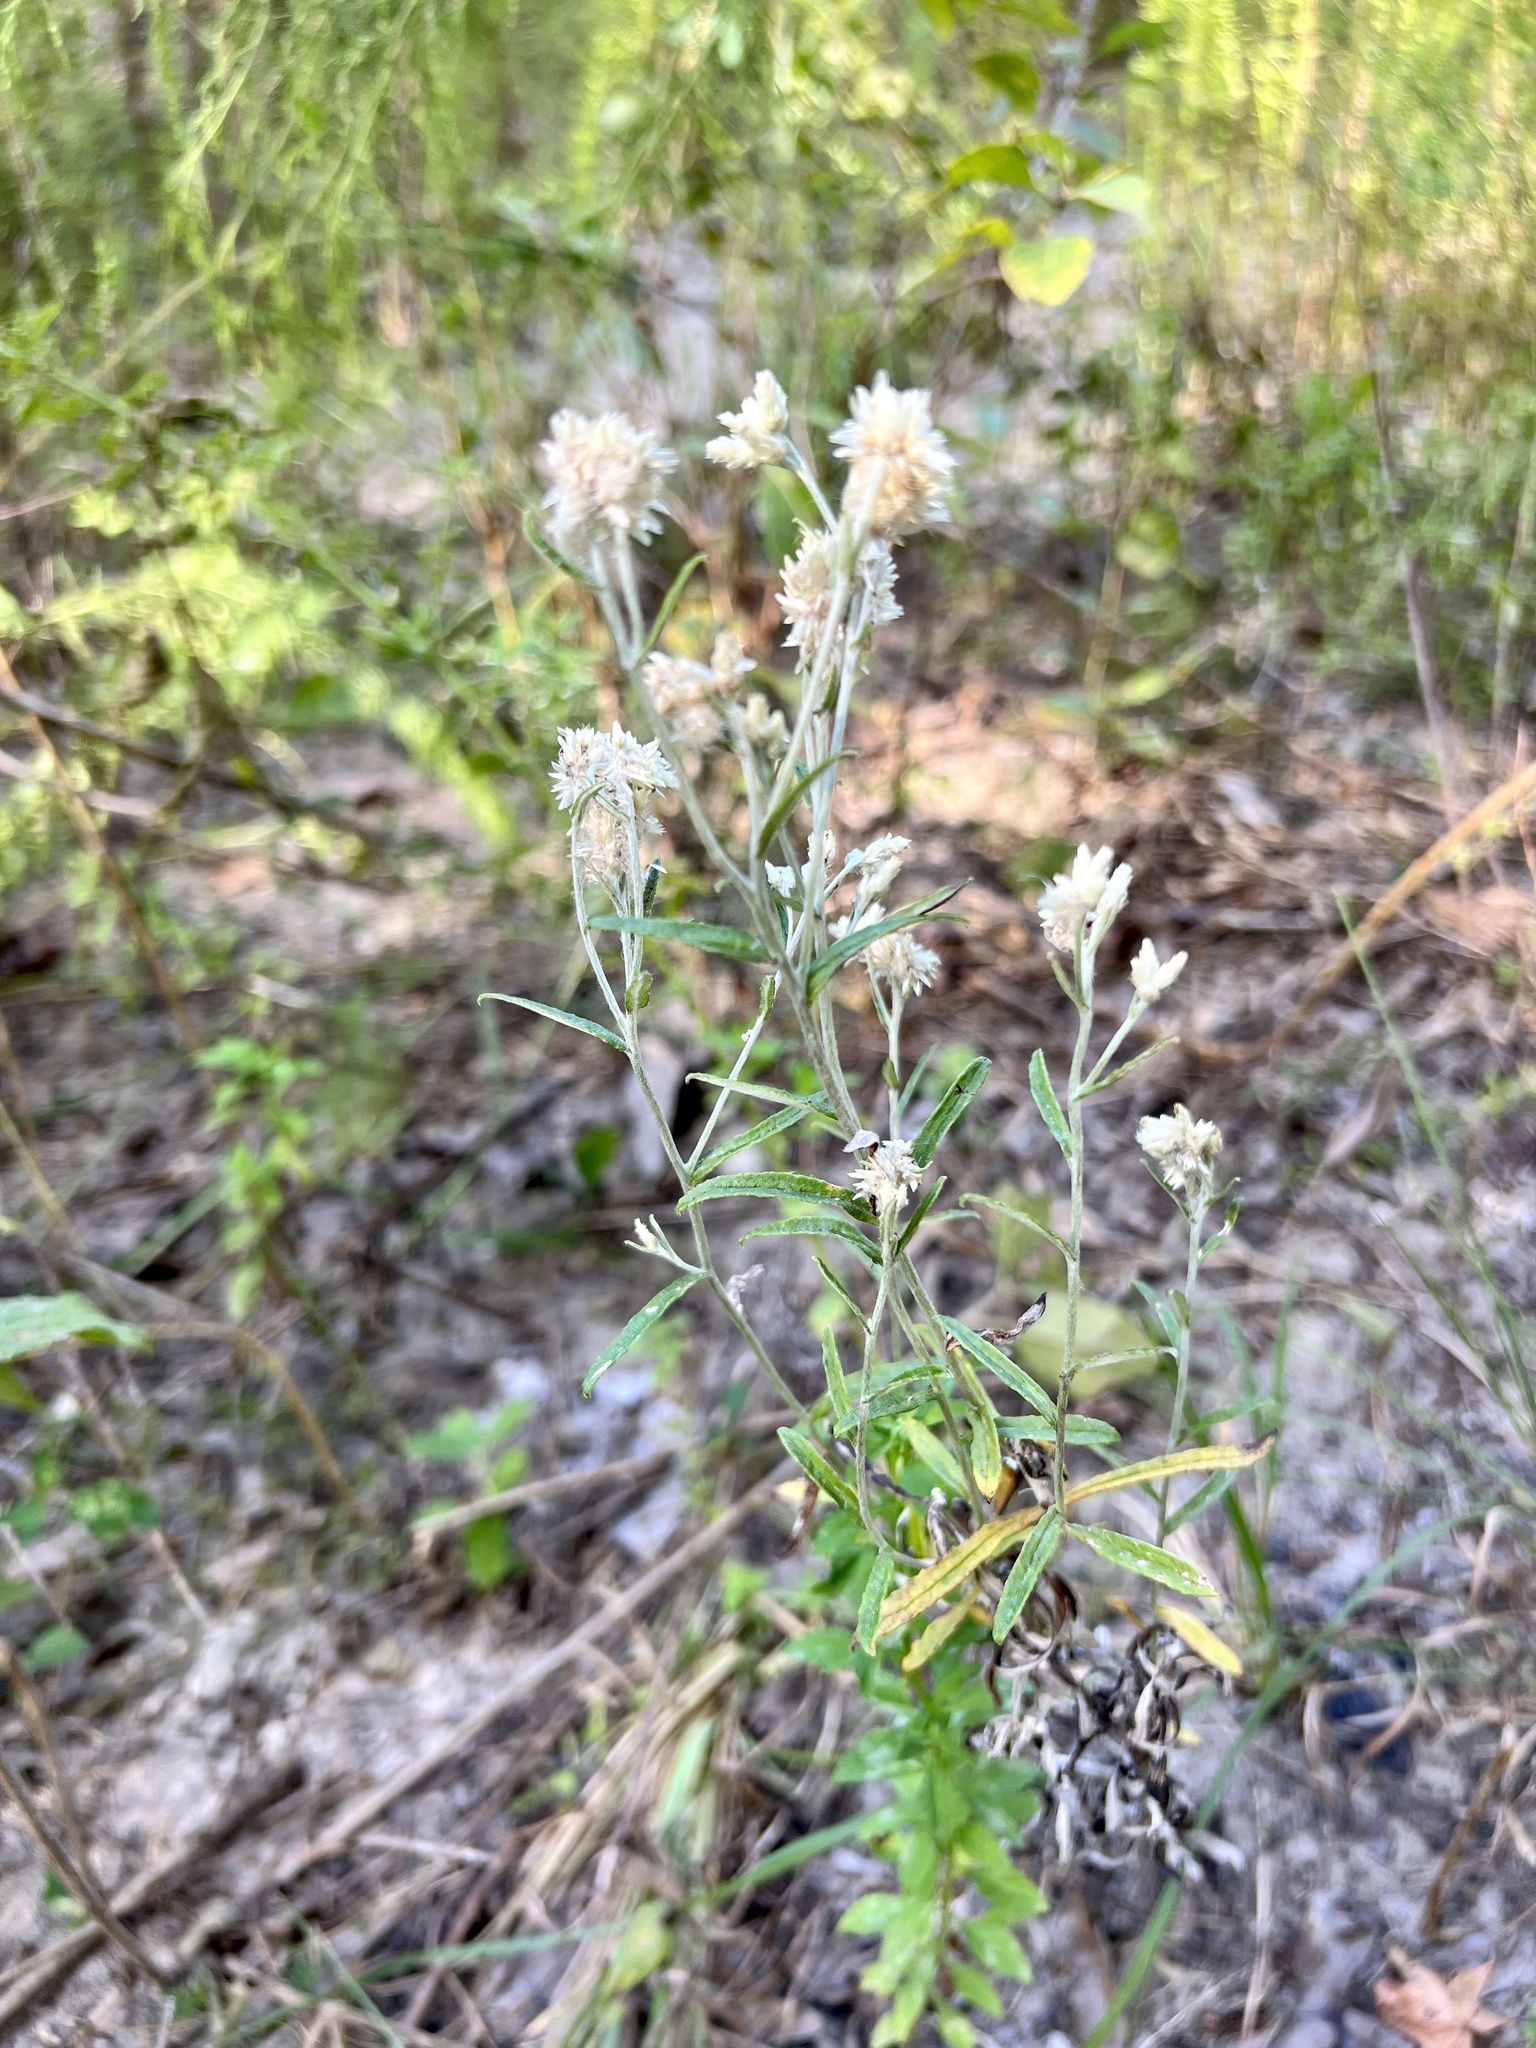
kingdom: Plantae
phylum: Tracheophyta
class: Magnoliopsida
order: Asterales
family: Asteraceae
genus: Pseudognaphalium
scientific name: Pseudognaphalium obtusifolium
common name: Eastern rabbit-tobacco
